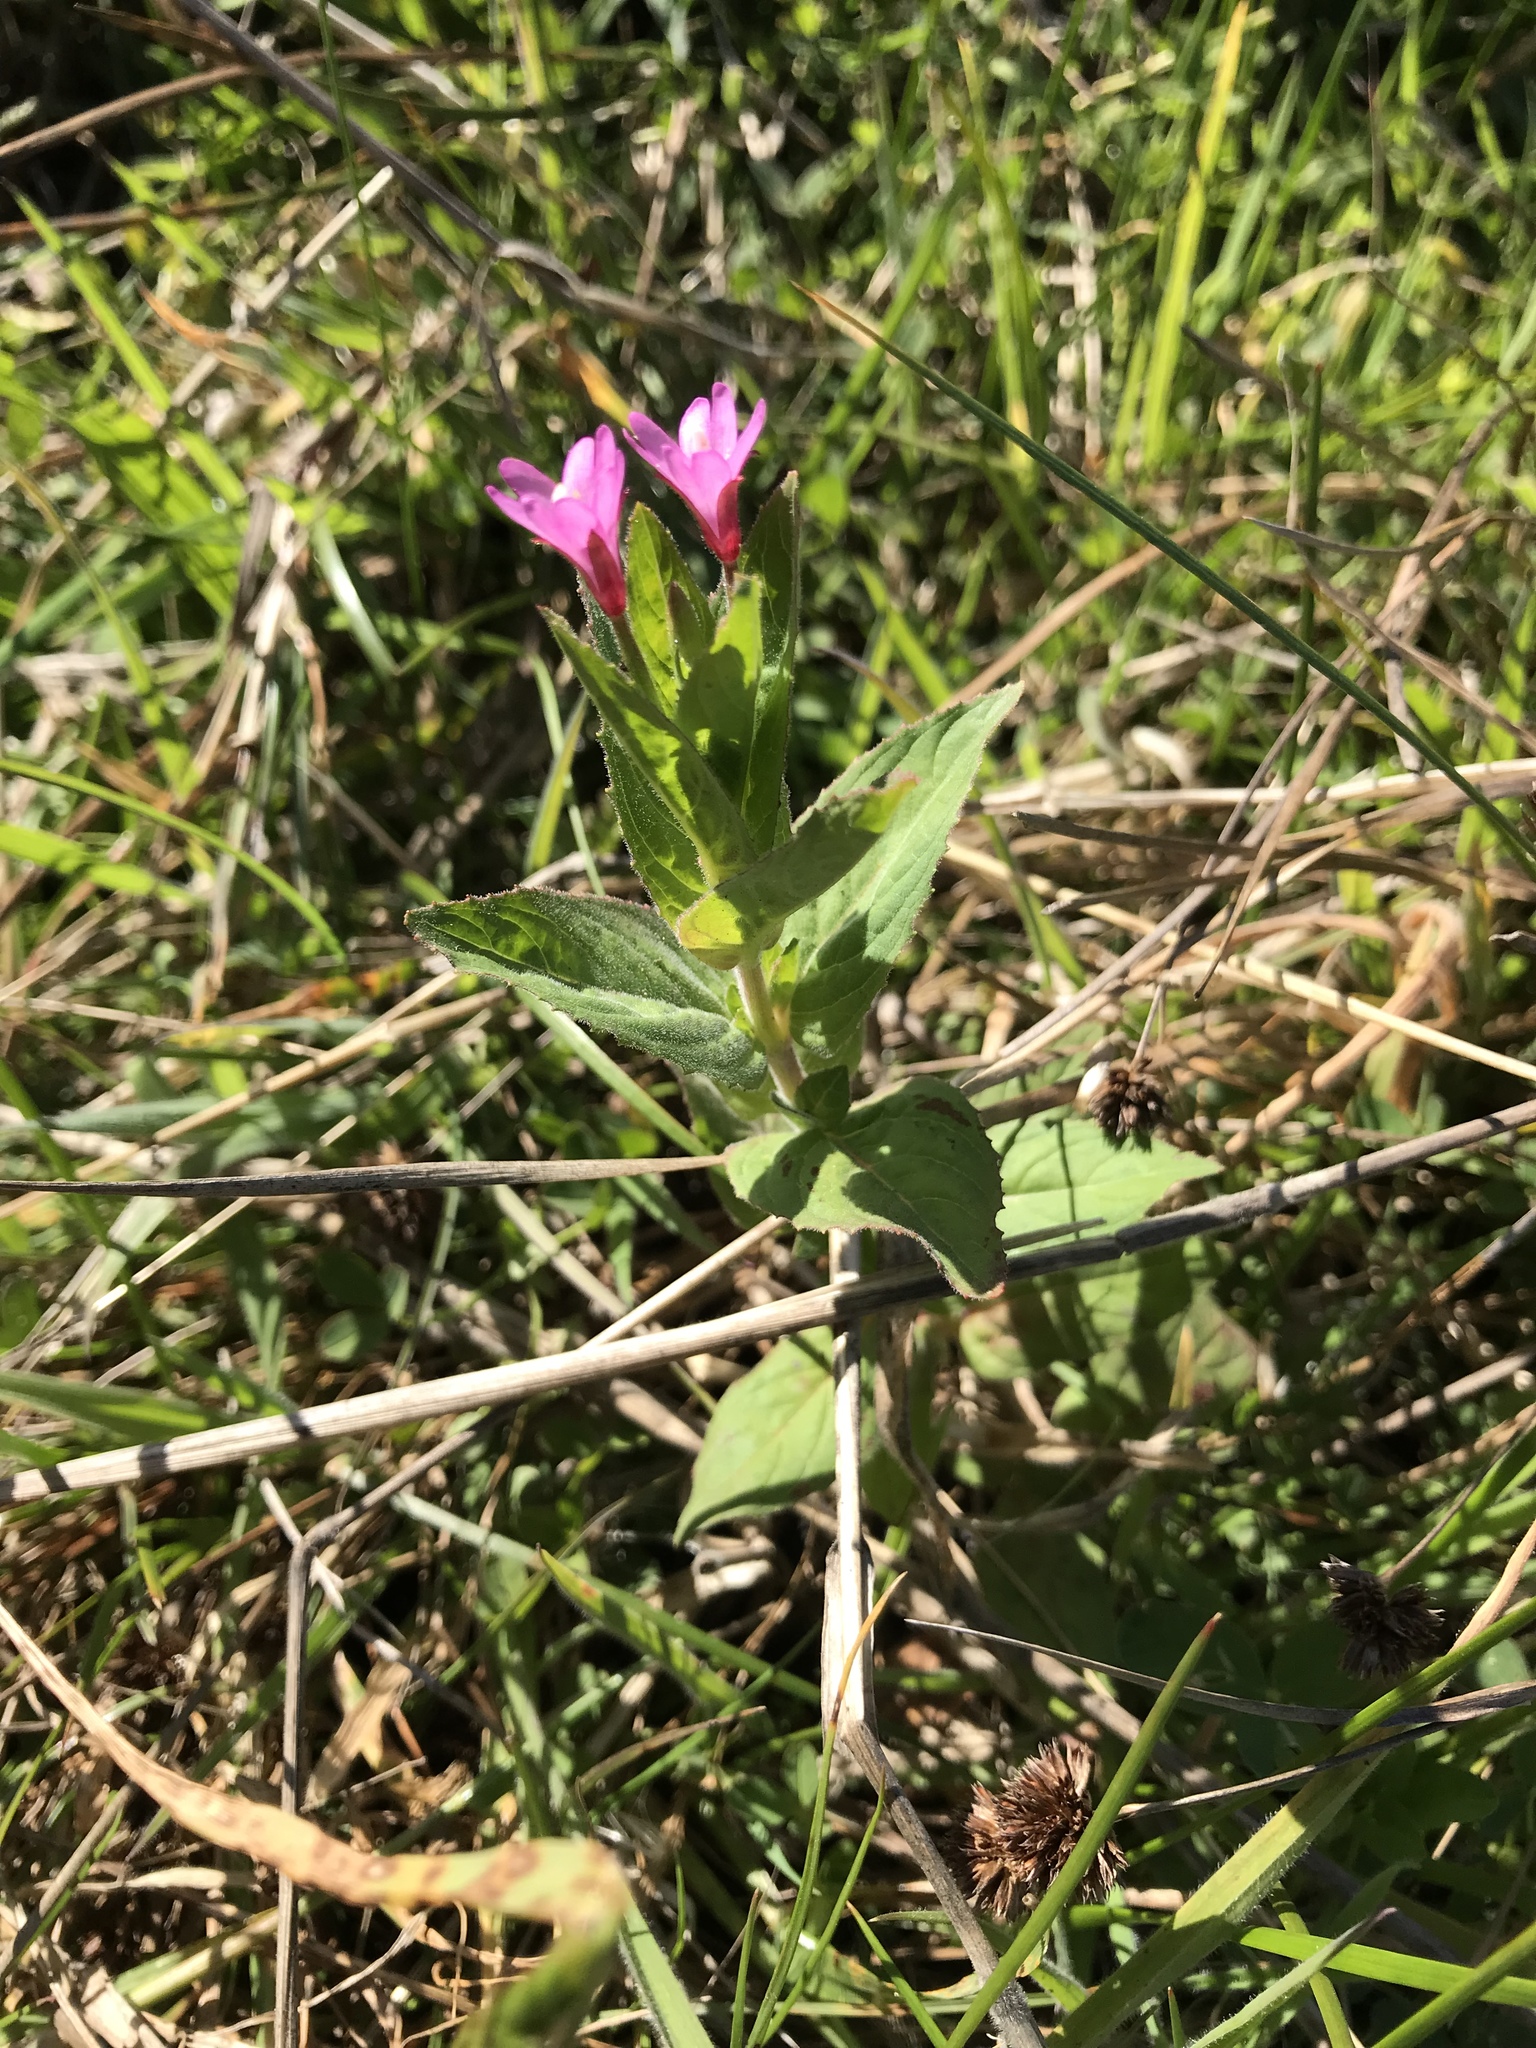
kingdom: Plantae
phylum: Tracheophyta
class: Magnoliopsida
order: Myrtales
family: Onagraceae
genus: Epilobium
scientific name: Epilobium ciliatum
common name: American willowherb
